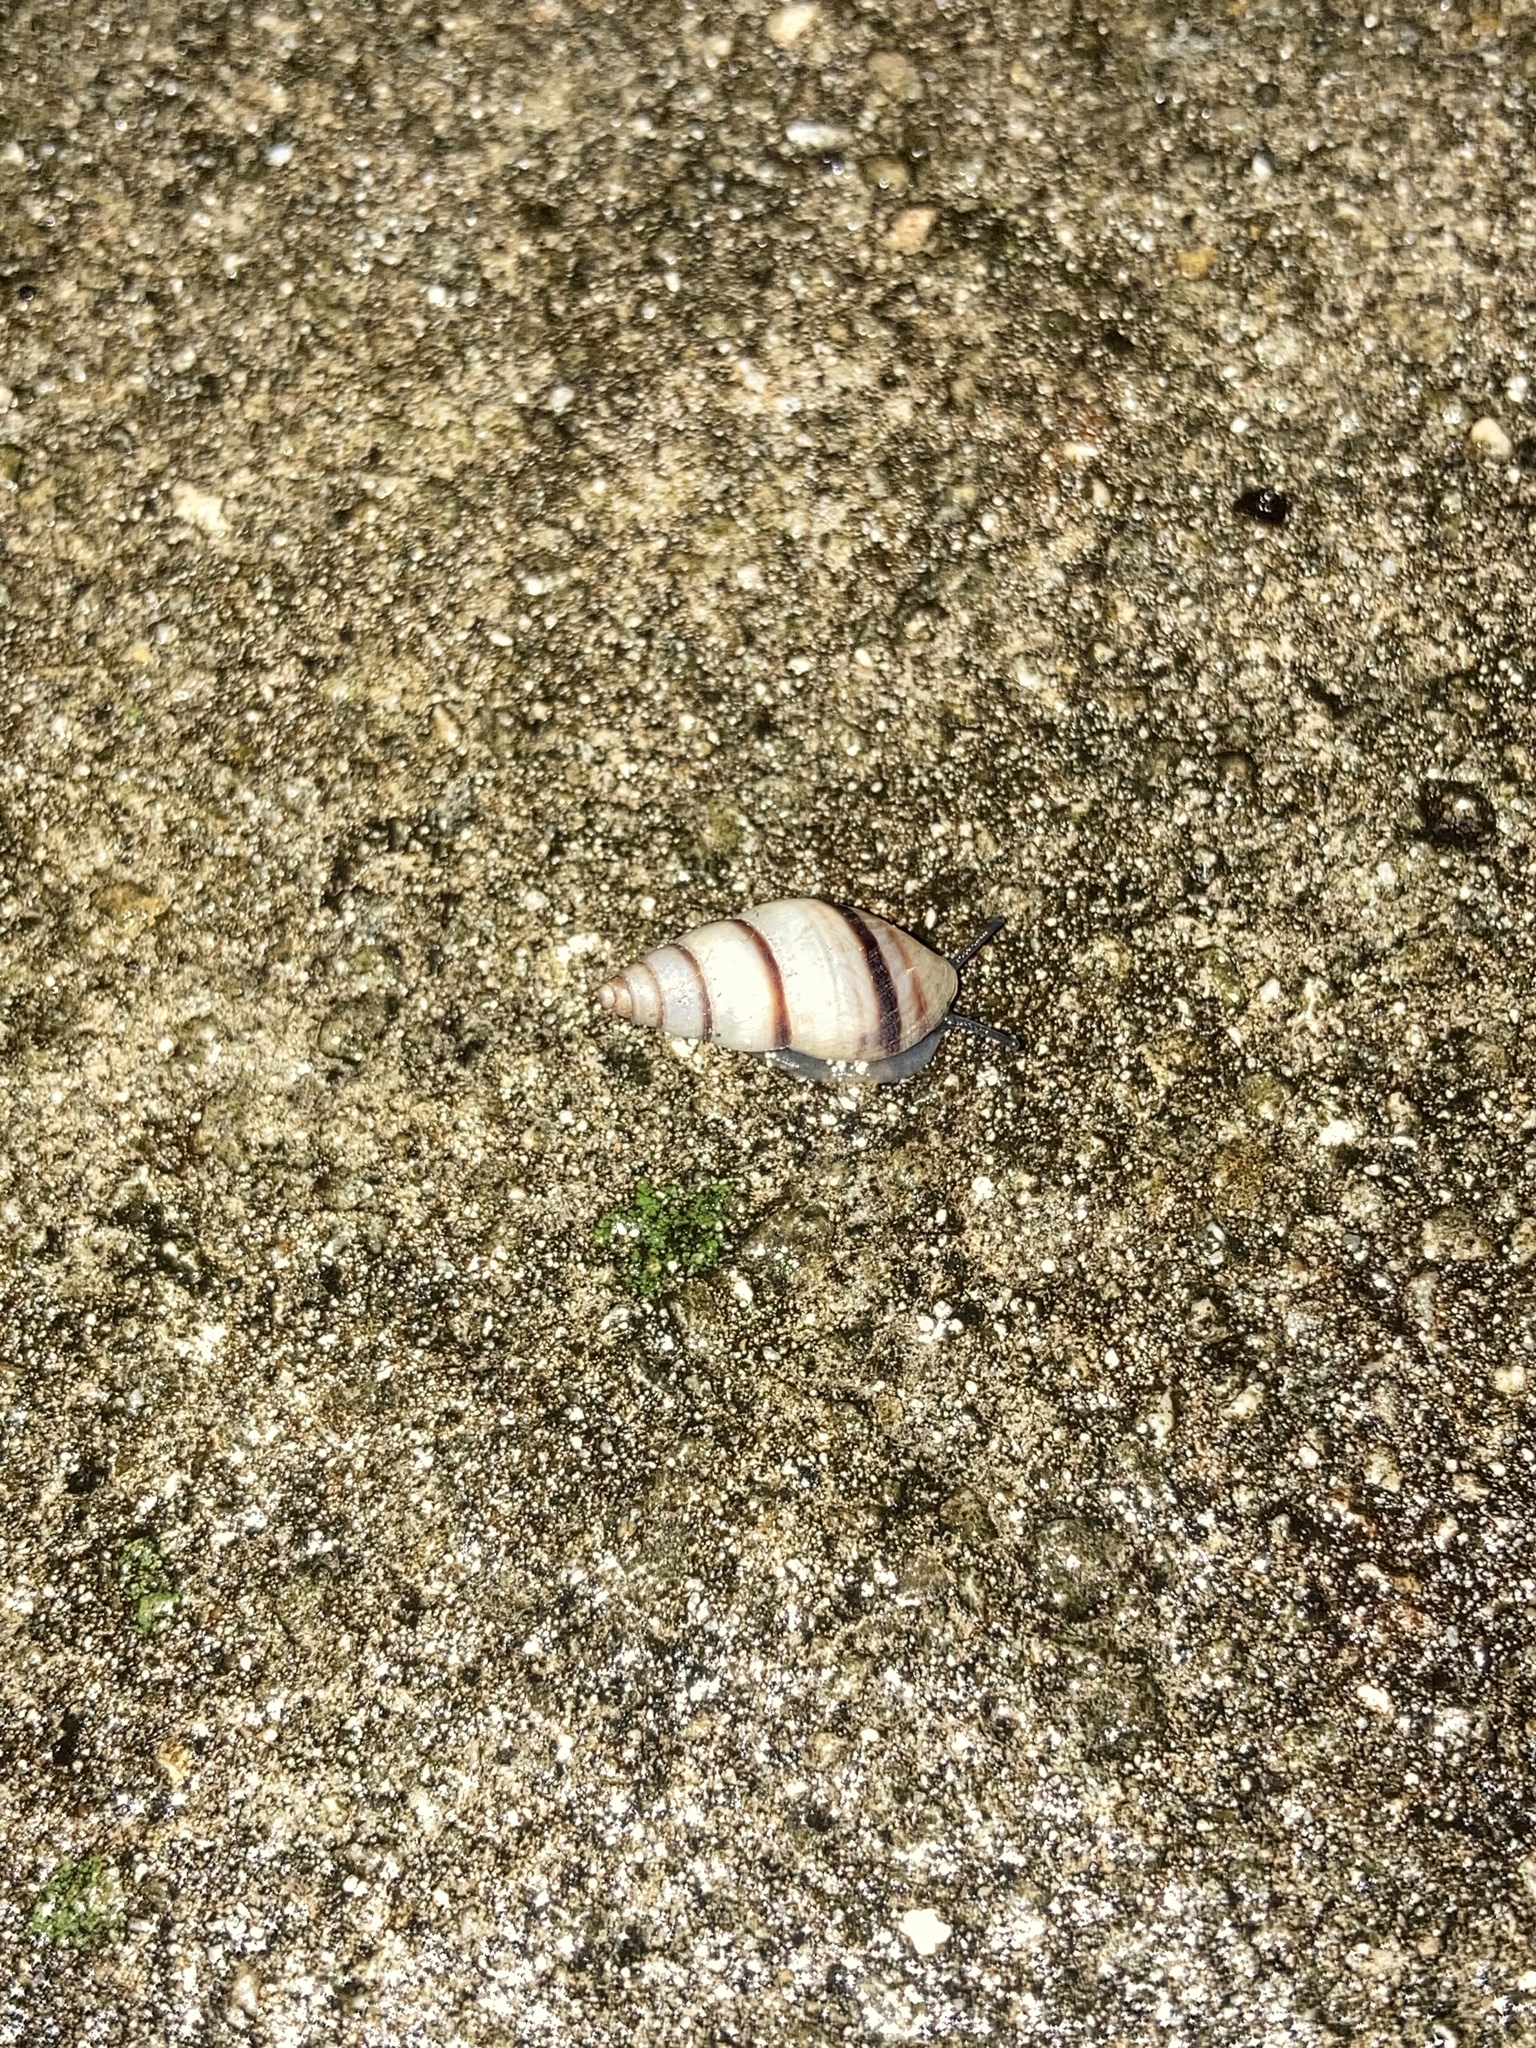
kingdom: Animalia
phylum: Mollusca
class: Gastropoda
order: Stylommatophora
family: Bulimulidae
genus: Bulimulus
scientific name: Bulimulus guadalupensis
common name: West indian bulimulus
